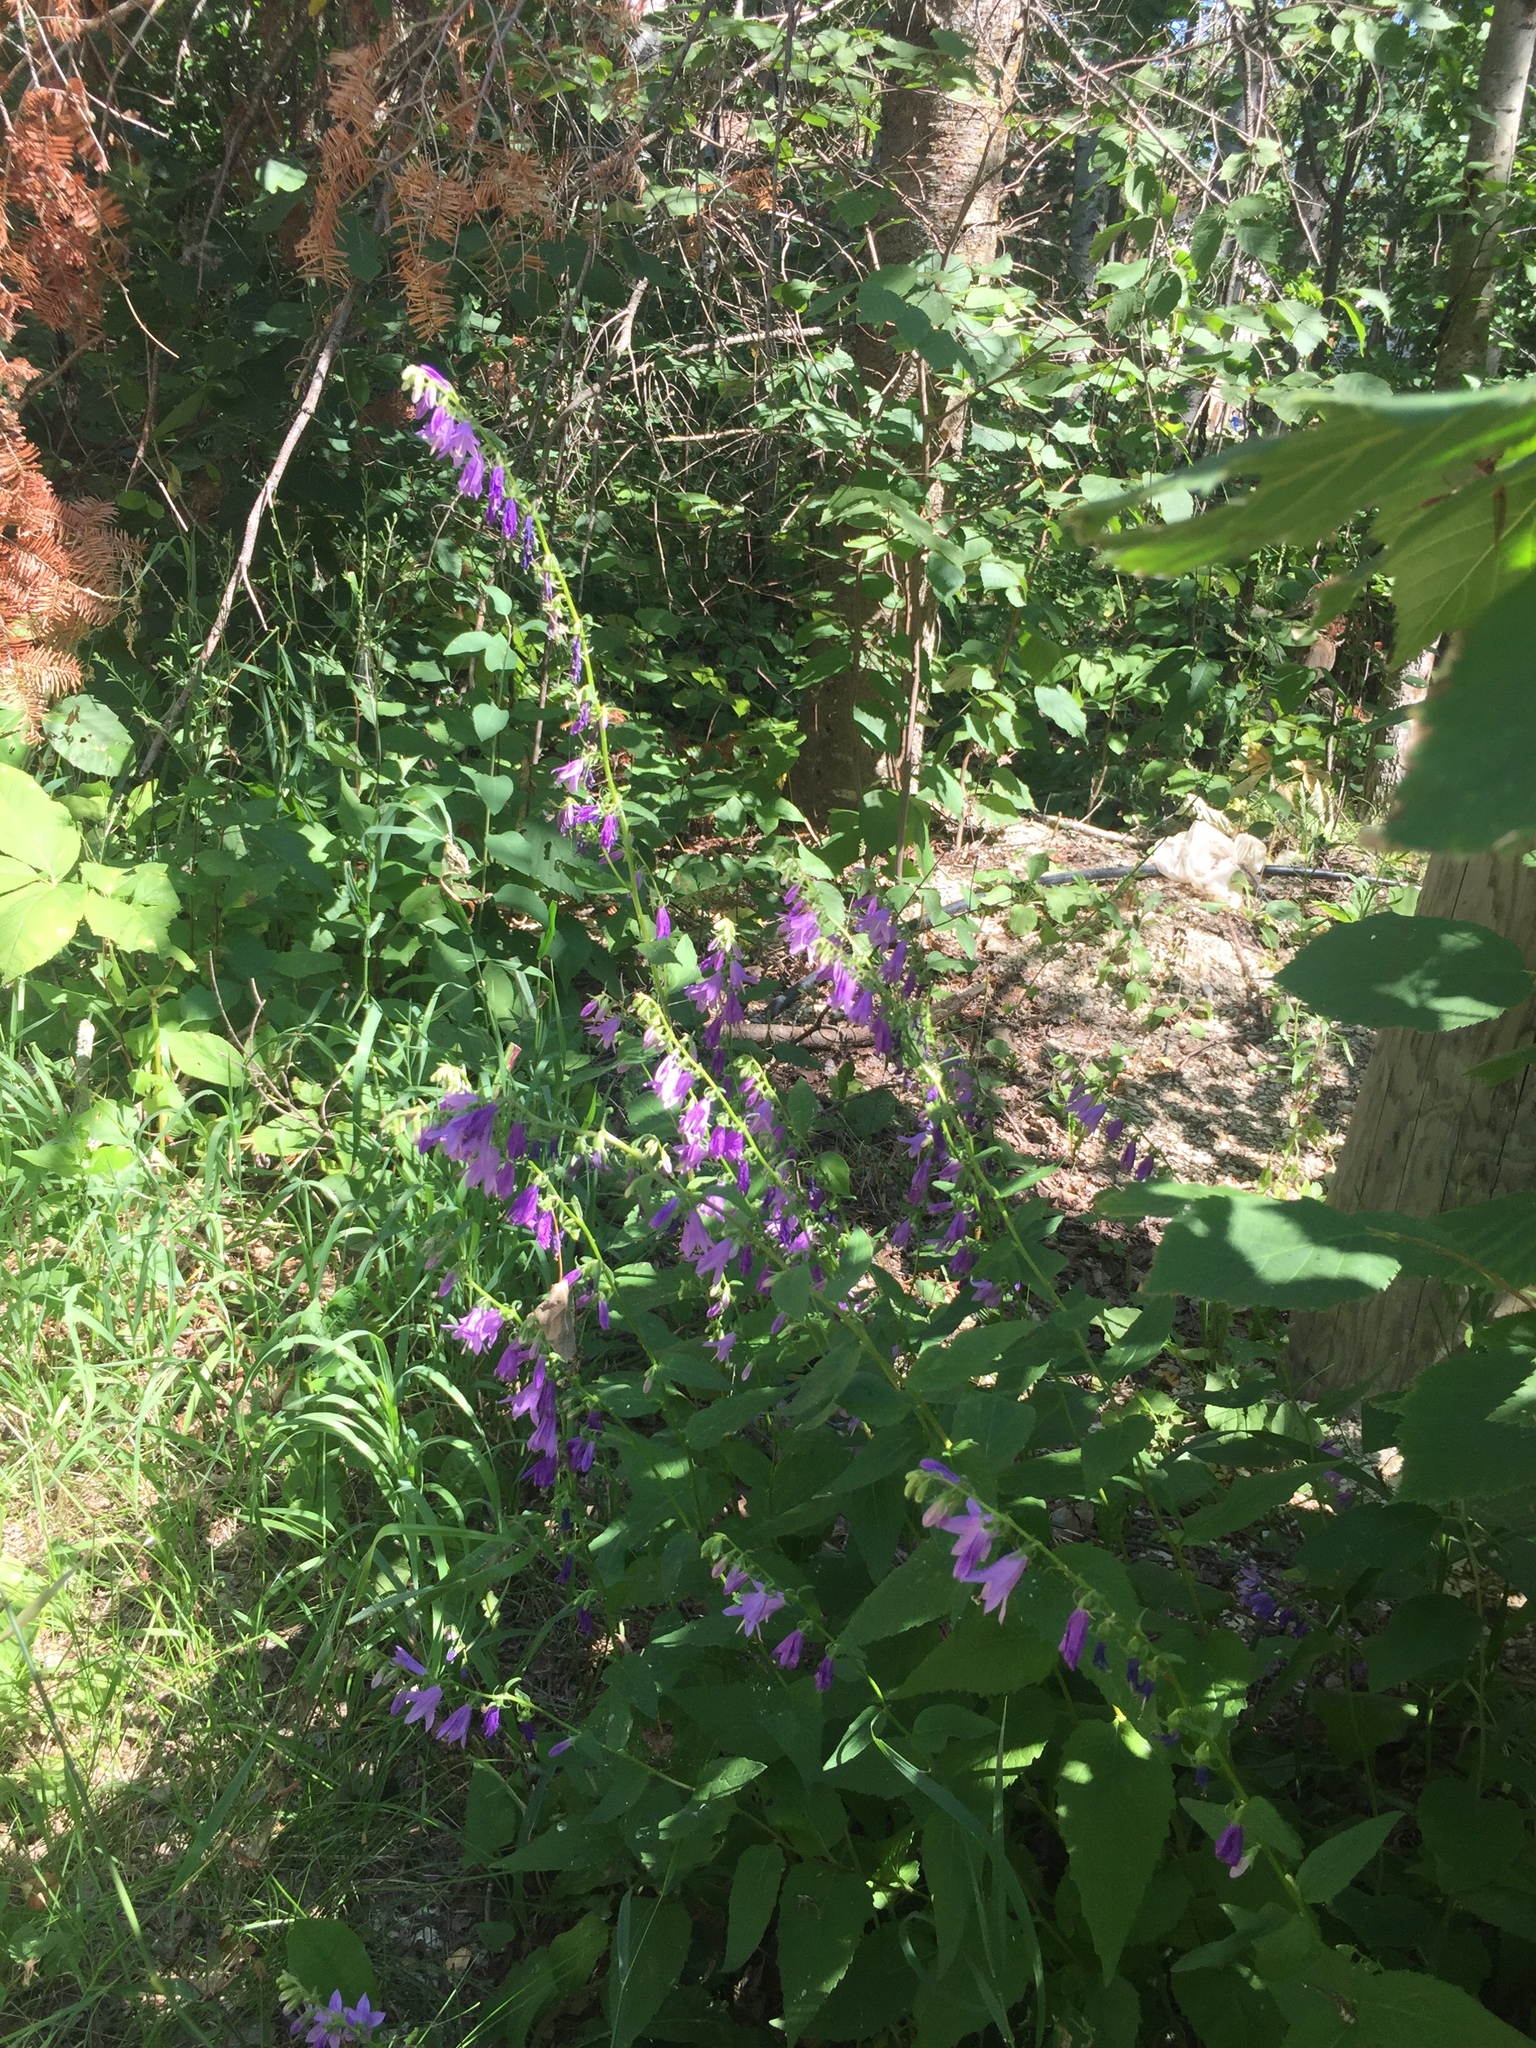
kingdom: Plantae
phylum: Tracheophyta
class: Magnoliopsida
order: Asterales
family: Campanulaceae
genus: Campanula
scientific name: Campanula rapunculoides
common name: Creeping bellflower
